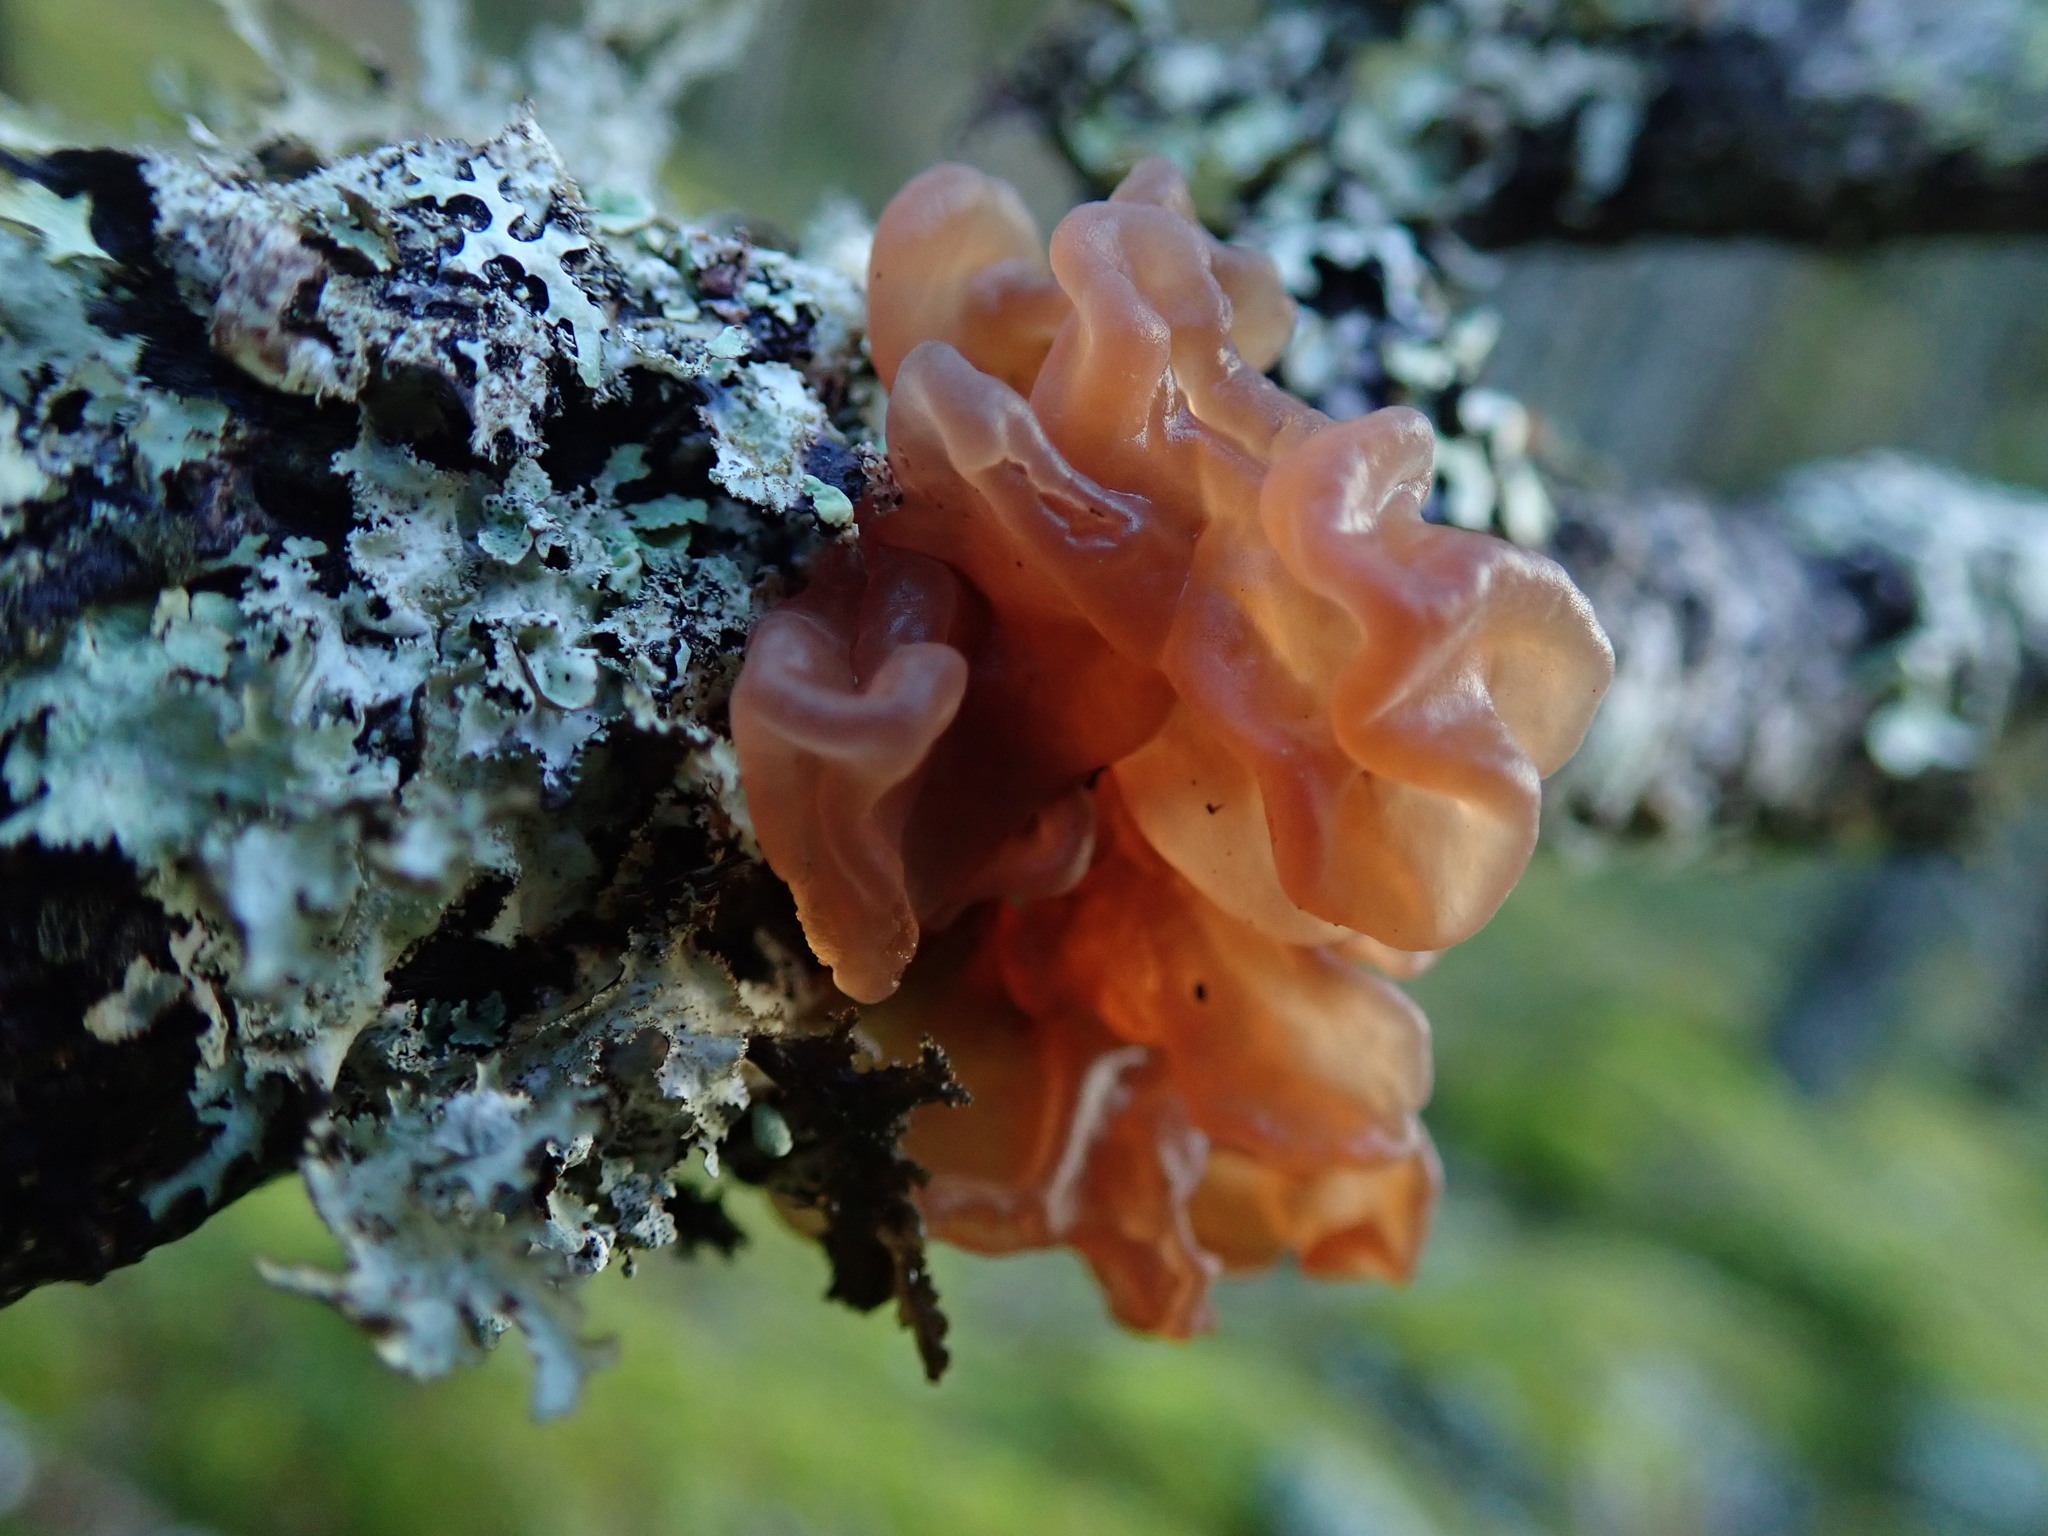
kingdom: Fungi
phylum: Basidiomycota
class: Tremellomycetes
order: Tremellales
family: Tremellaceae
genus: Phaeotremella
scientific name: Phaeotremella foliacea
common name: Leafy brain
